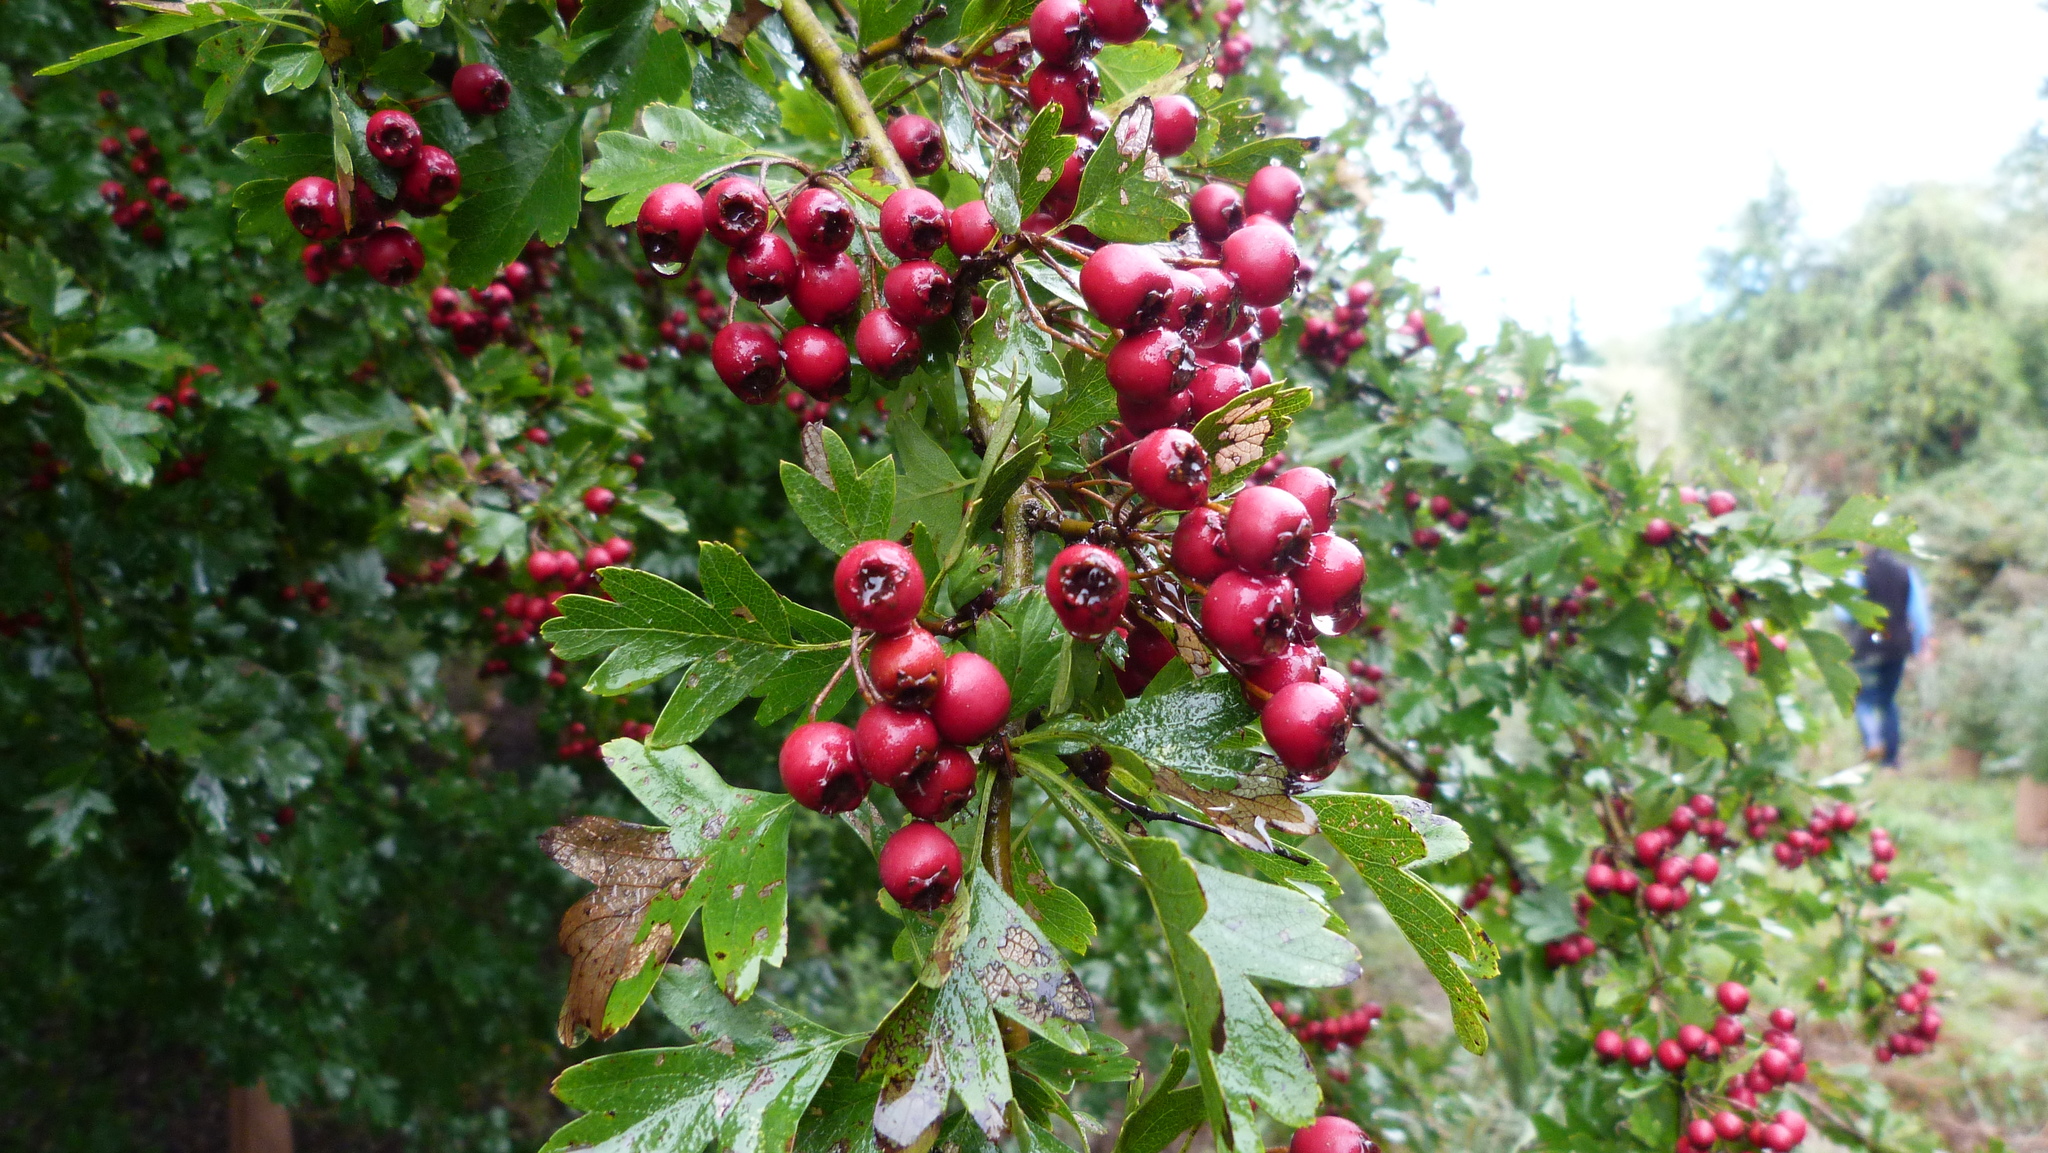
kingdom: Plantae
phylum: Tracheophyta
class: Magnoliopsida
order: Rosales
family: Rosaceae
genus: Crataegus
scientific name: Crataegus monogyna
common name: Hawthorn
